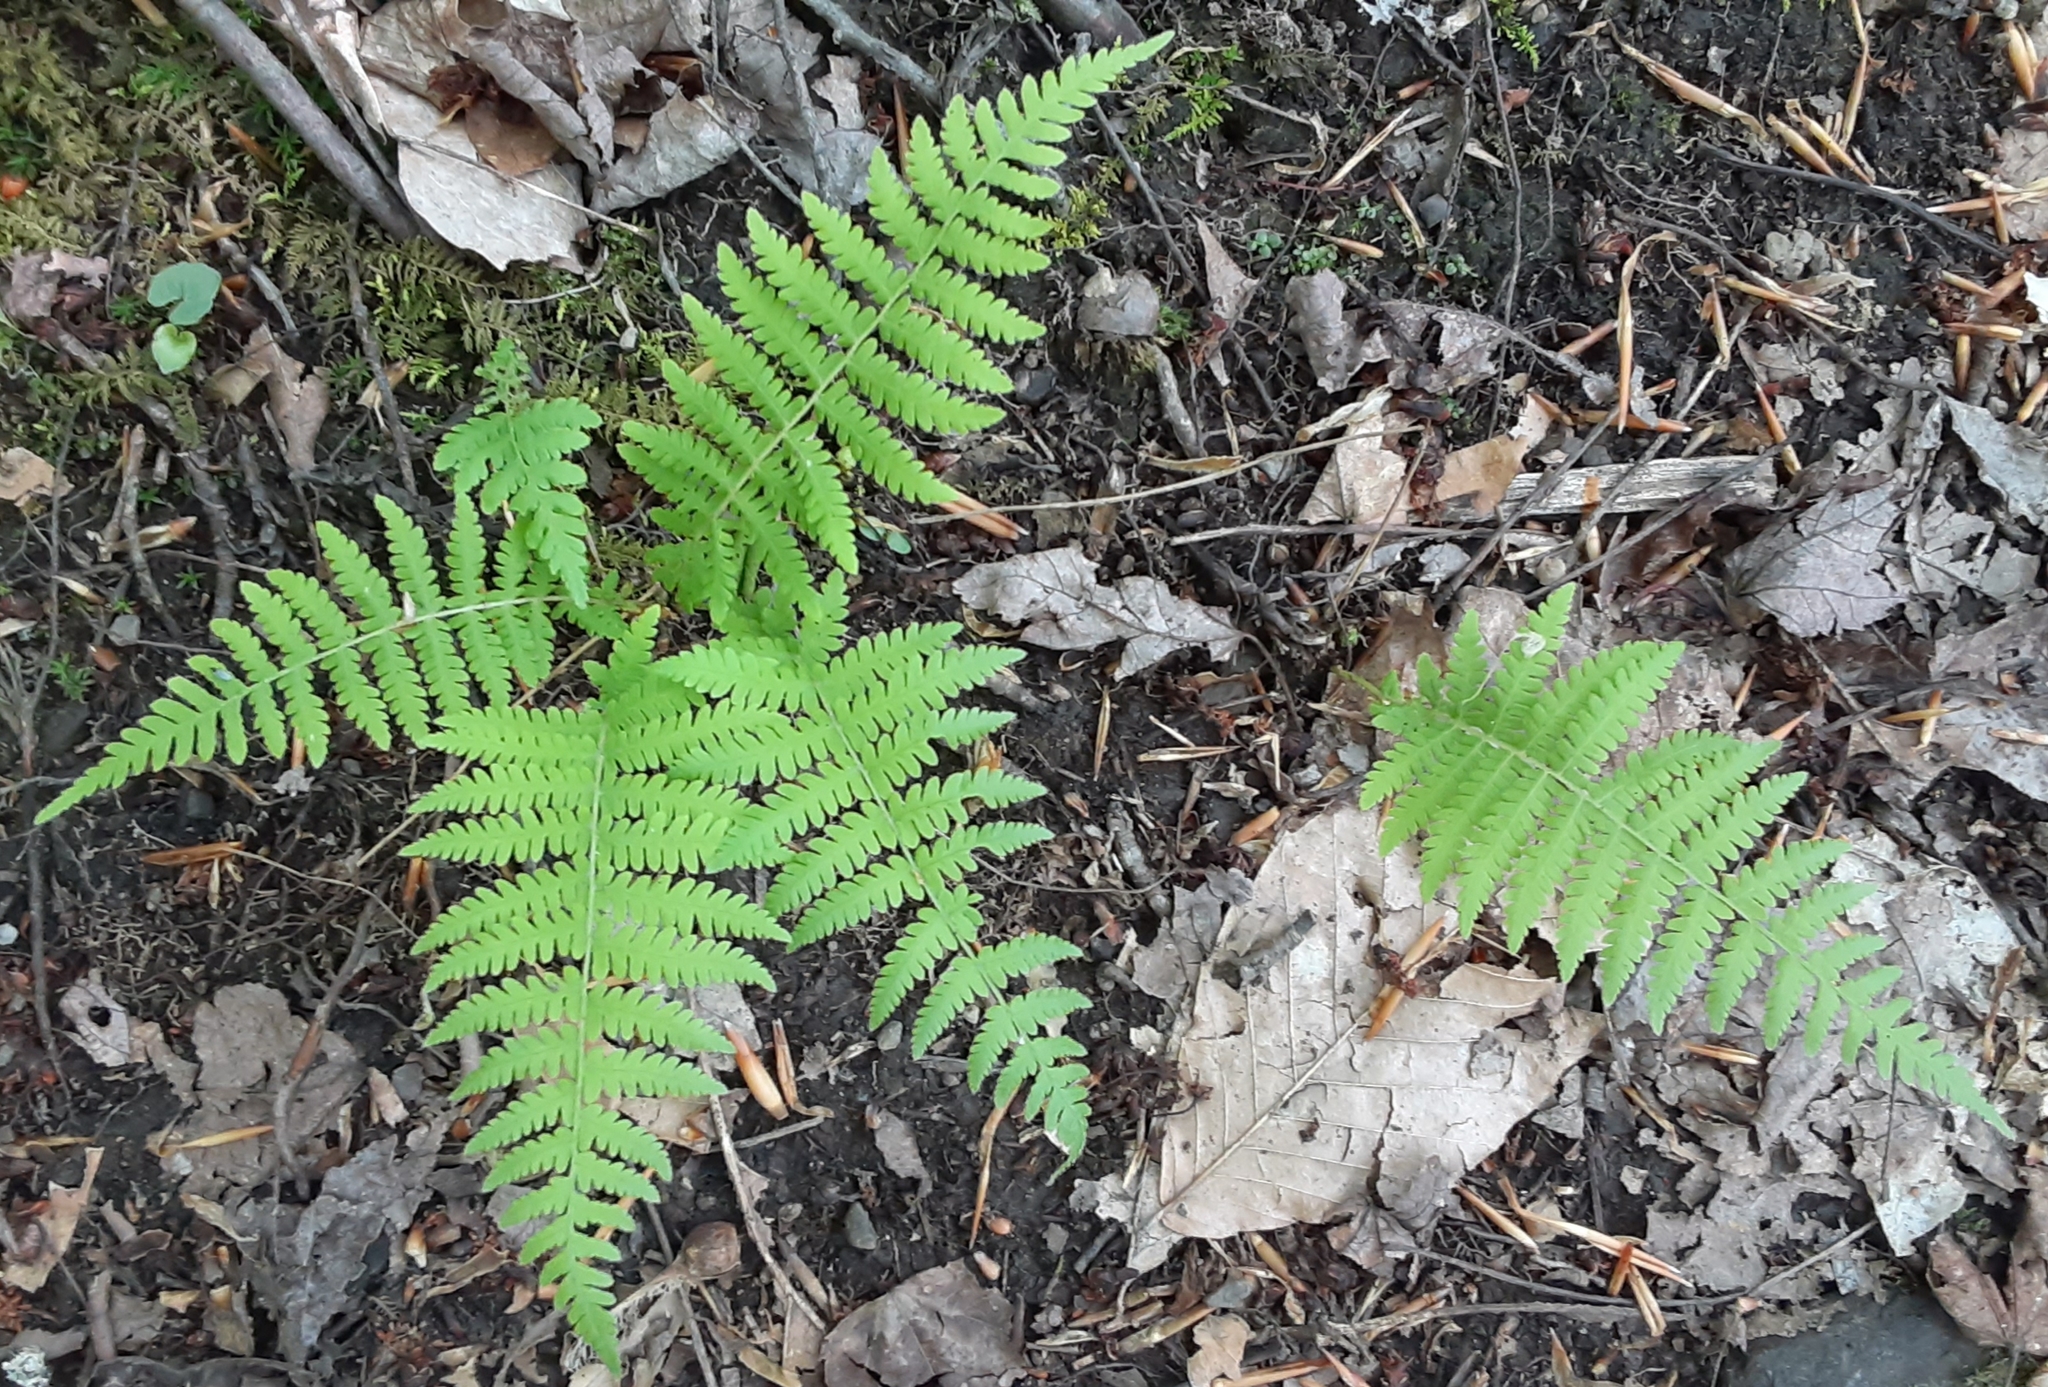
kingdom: Plantae
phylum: Tracheophyta
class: Polypodiopsida
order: Polypodiales
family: Thelypteridaceae
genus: Amauropelta
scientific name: Amauropelta noveboracensis
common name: New york fern
